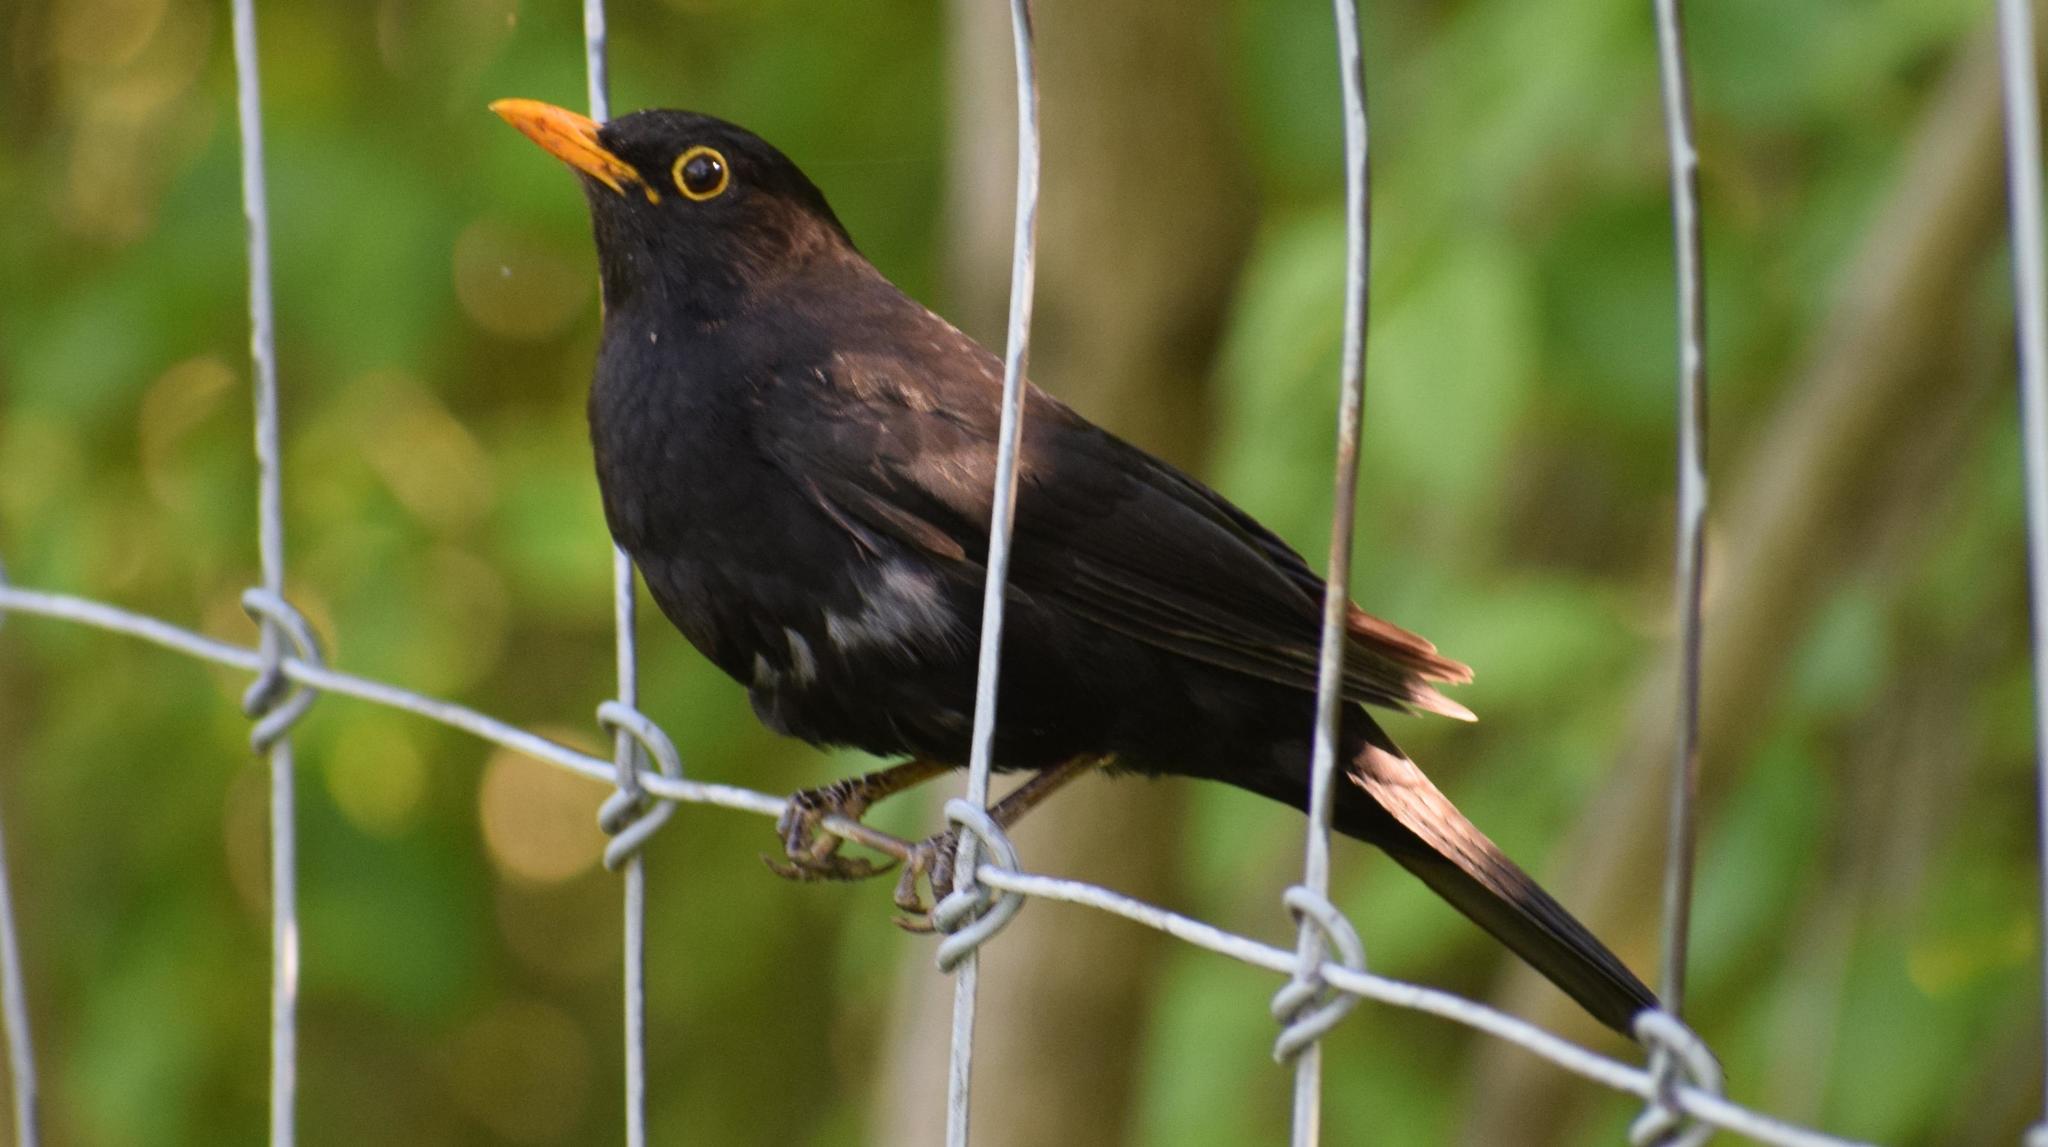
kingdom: Animalia
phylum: Chordata
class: Aves
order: Passeriformes
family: Turdidae
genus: Turdus
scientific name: Turdus merula
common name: Common blackbird
